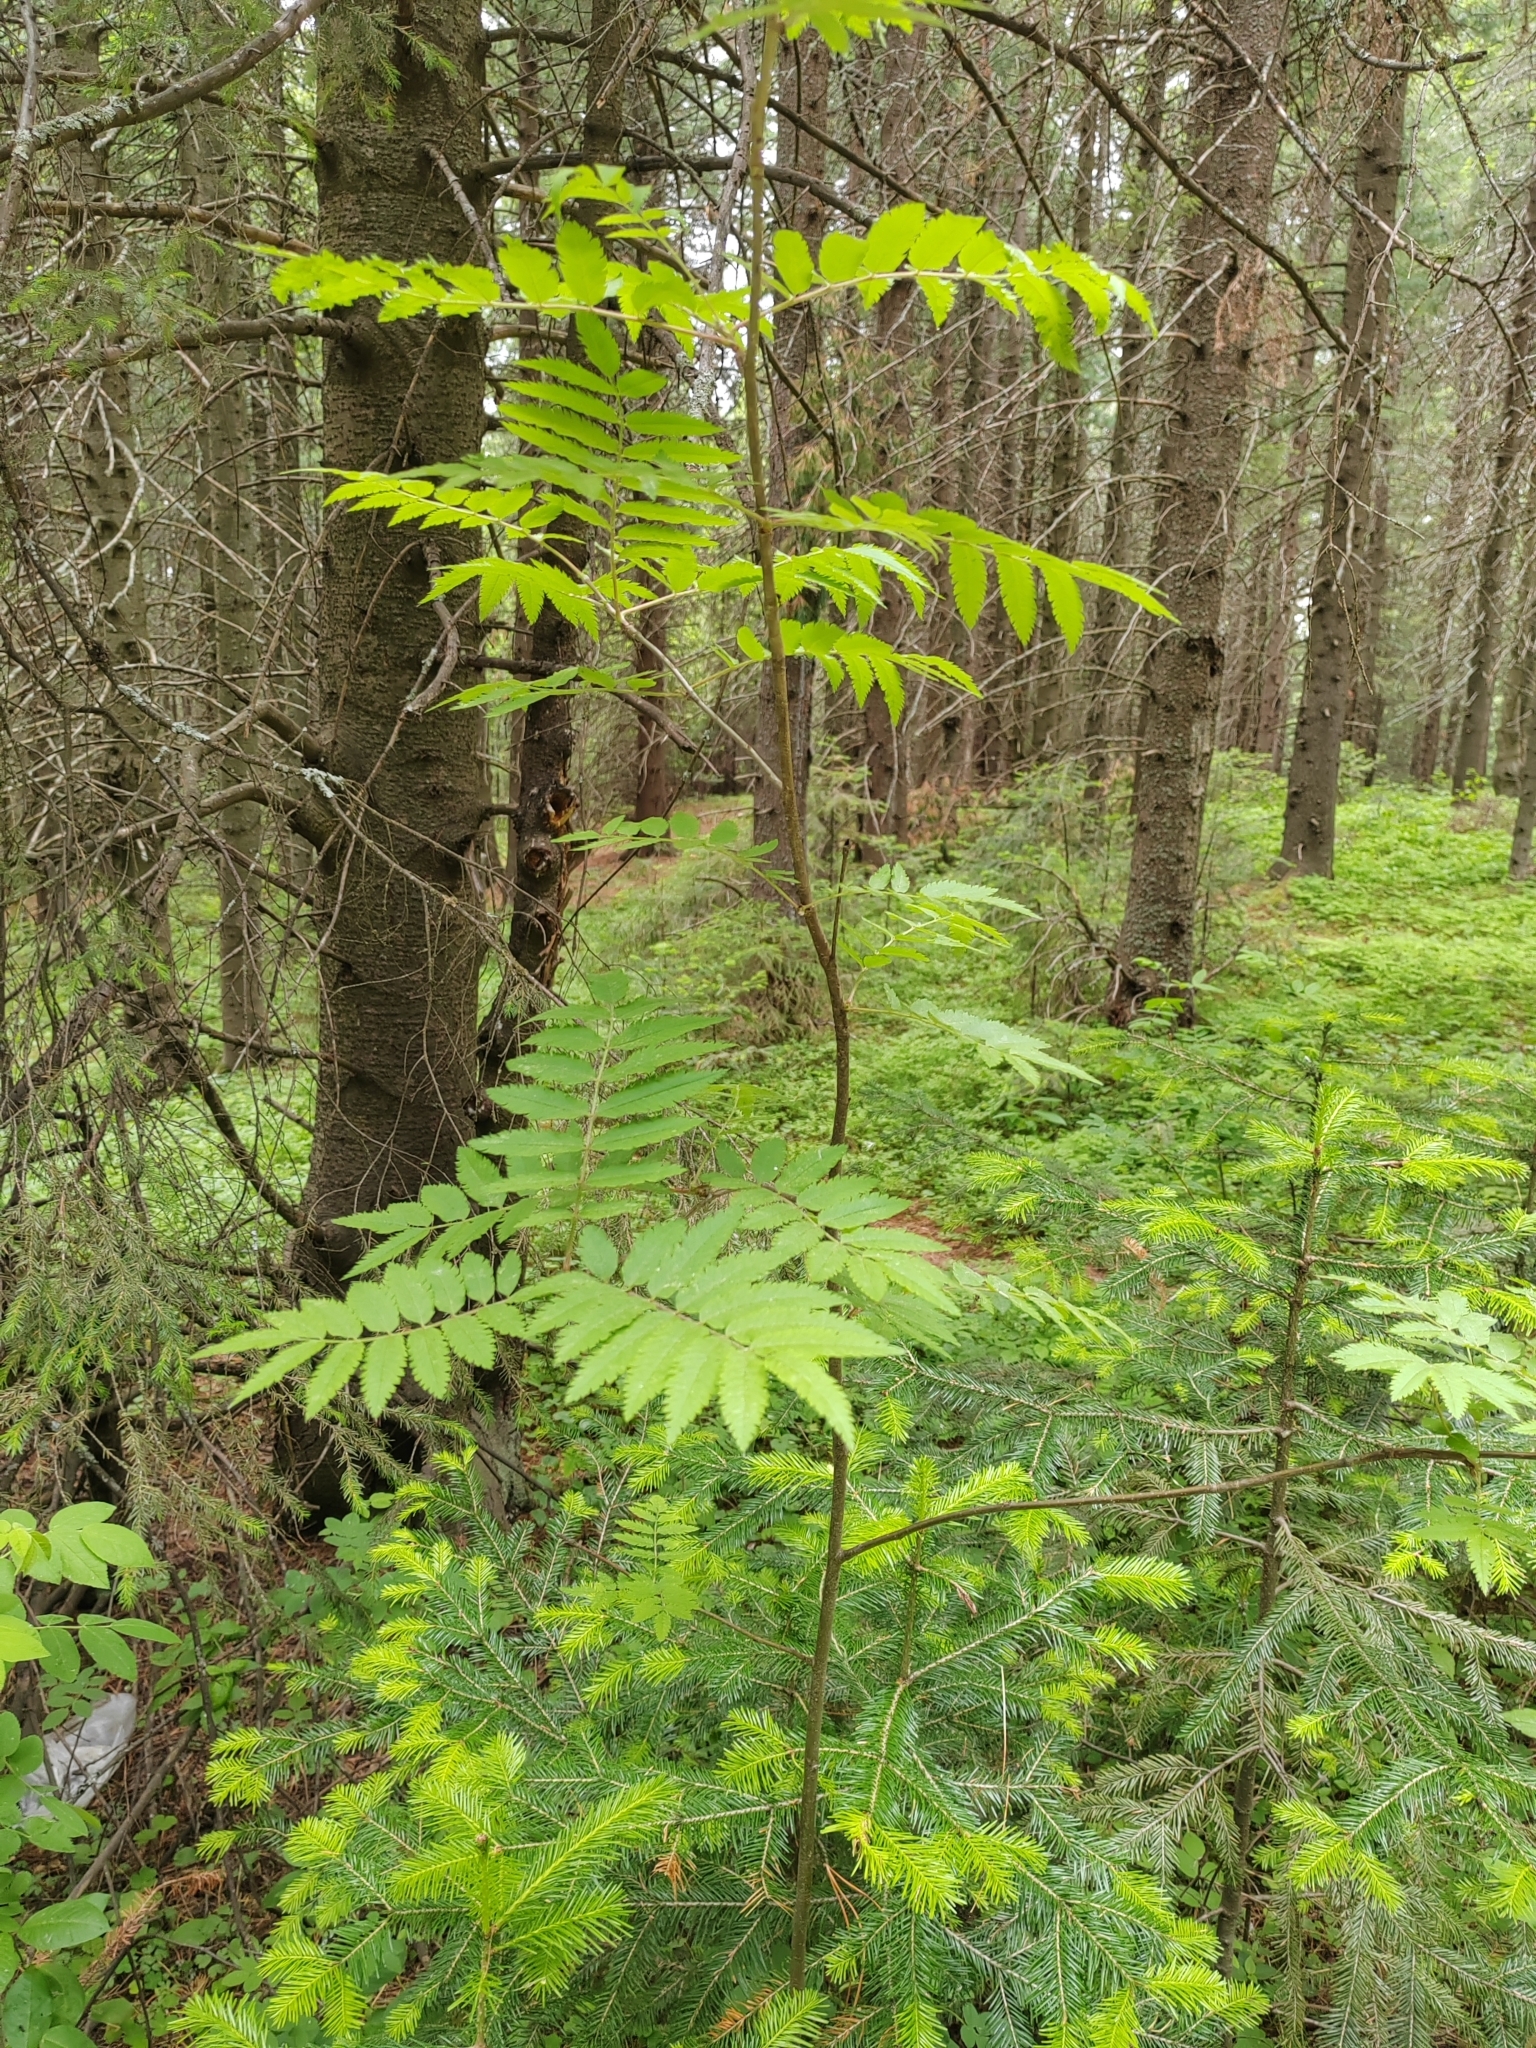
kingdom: Plantae
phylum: Tracheophyta
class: Magnoliopsida
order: Rosales
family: Rosaceae
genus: Sorbus
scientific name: Sorbus aucuparia
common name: Rowan
